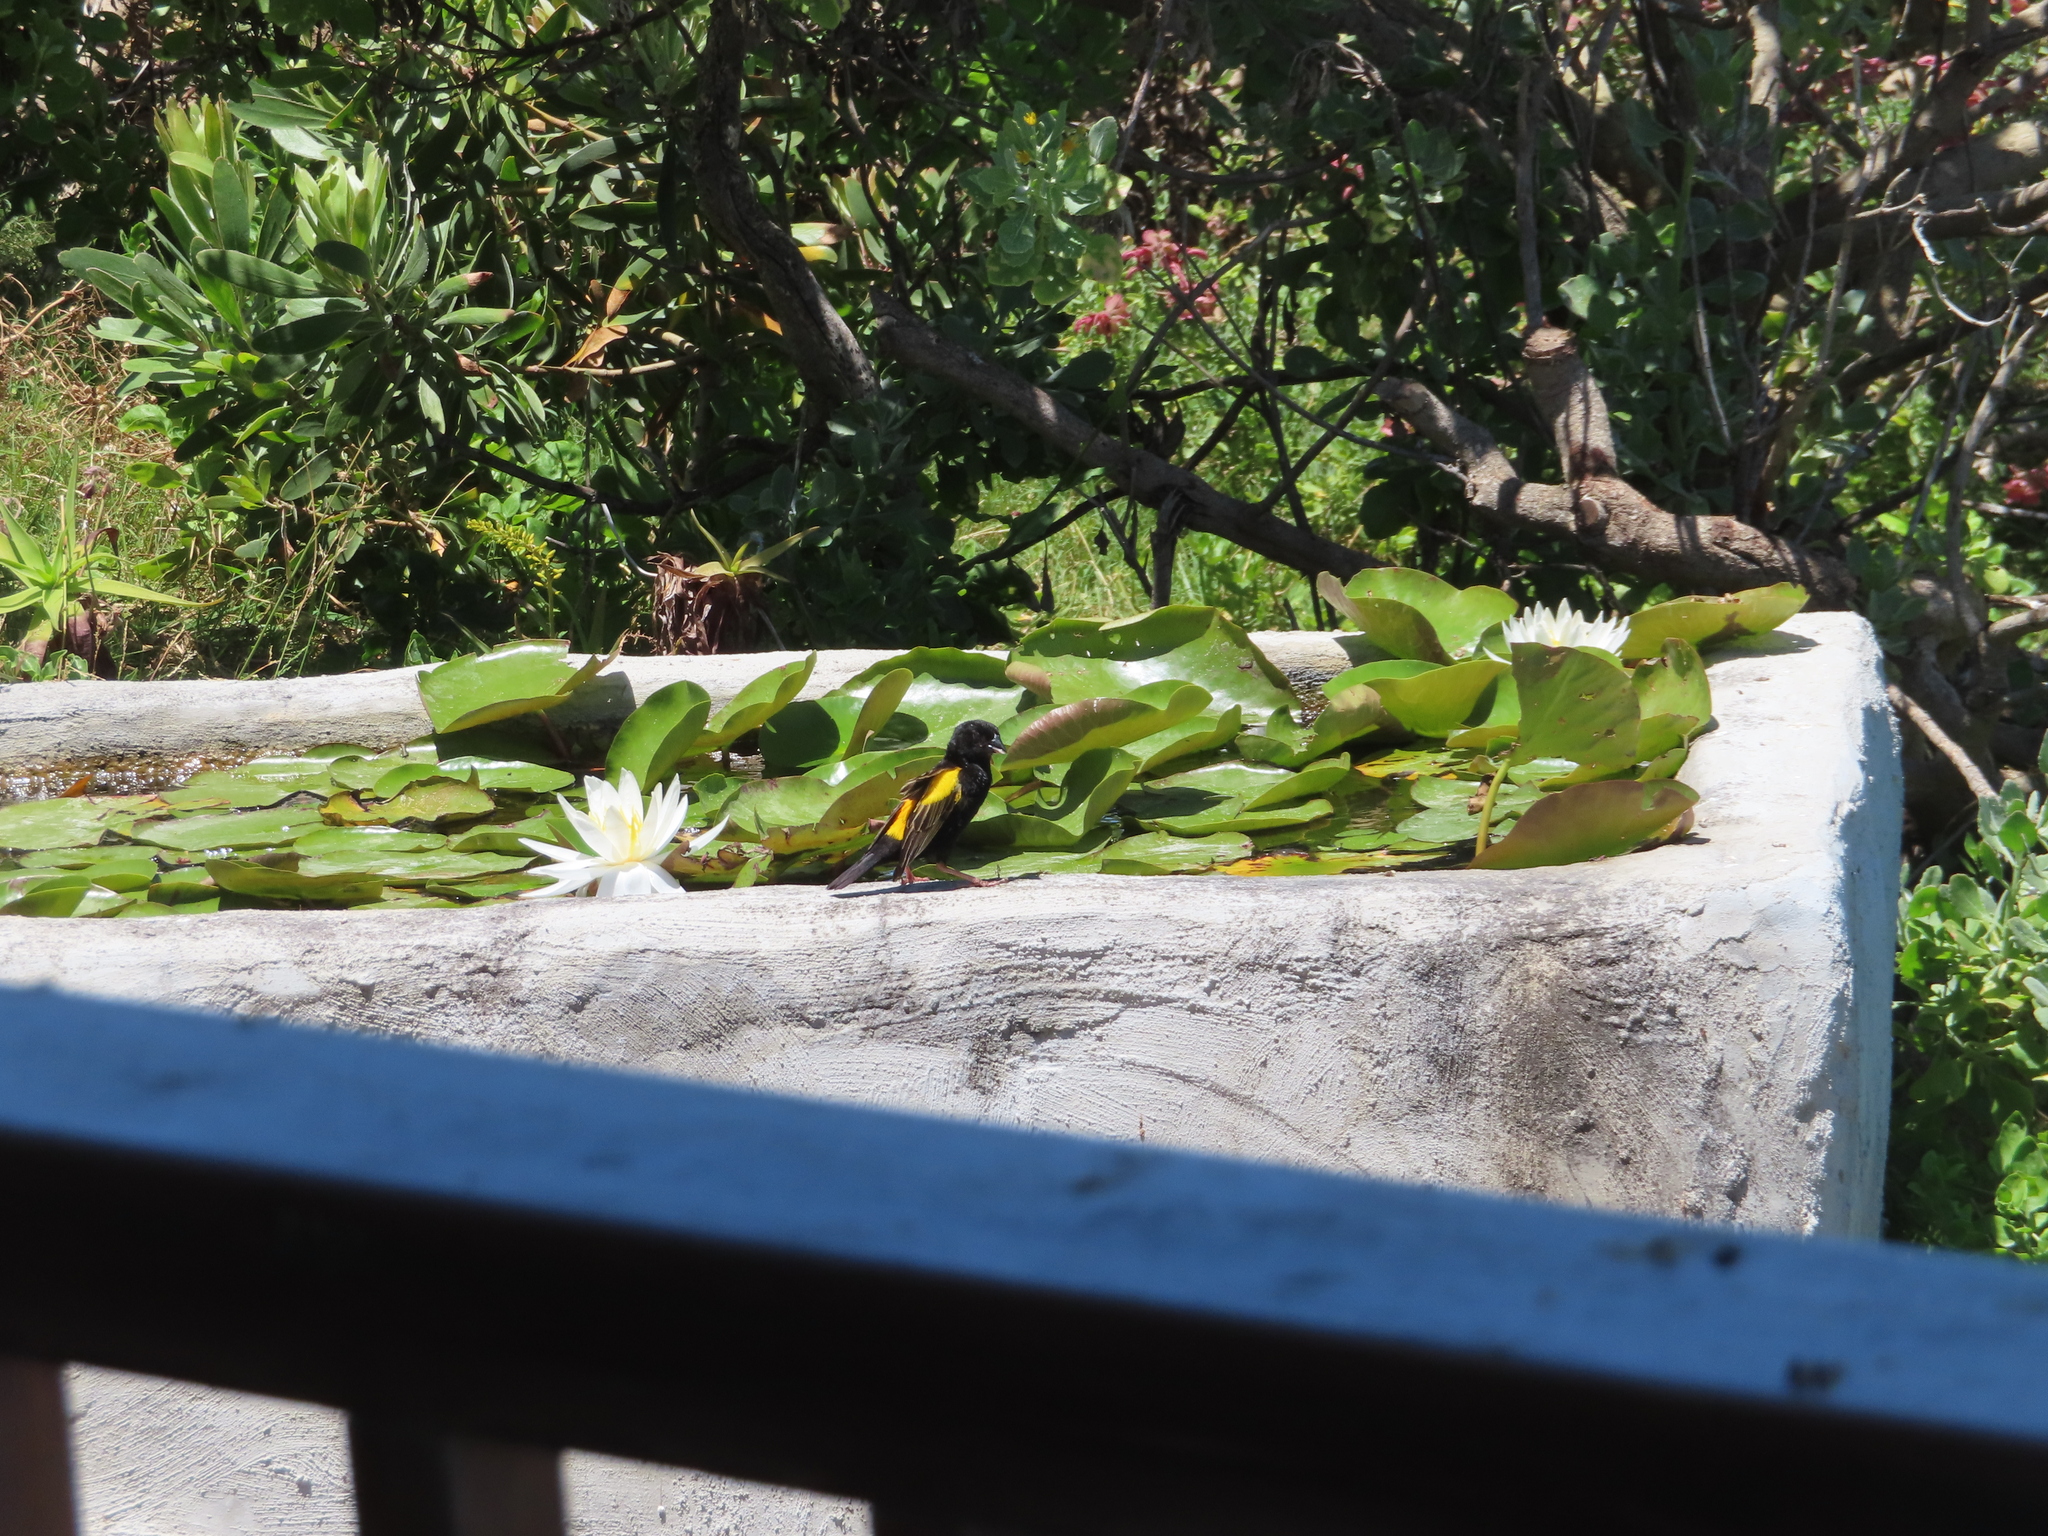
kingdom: Animalia
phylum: Chordata
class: Aves
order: Passeriformes
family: Ploceidae
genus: Euplectes
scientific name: Euplectes capensis
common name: Yellow bishop
